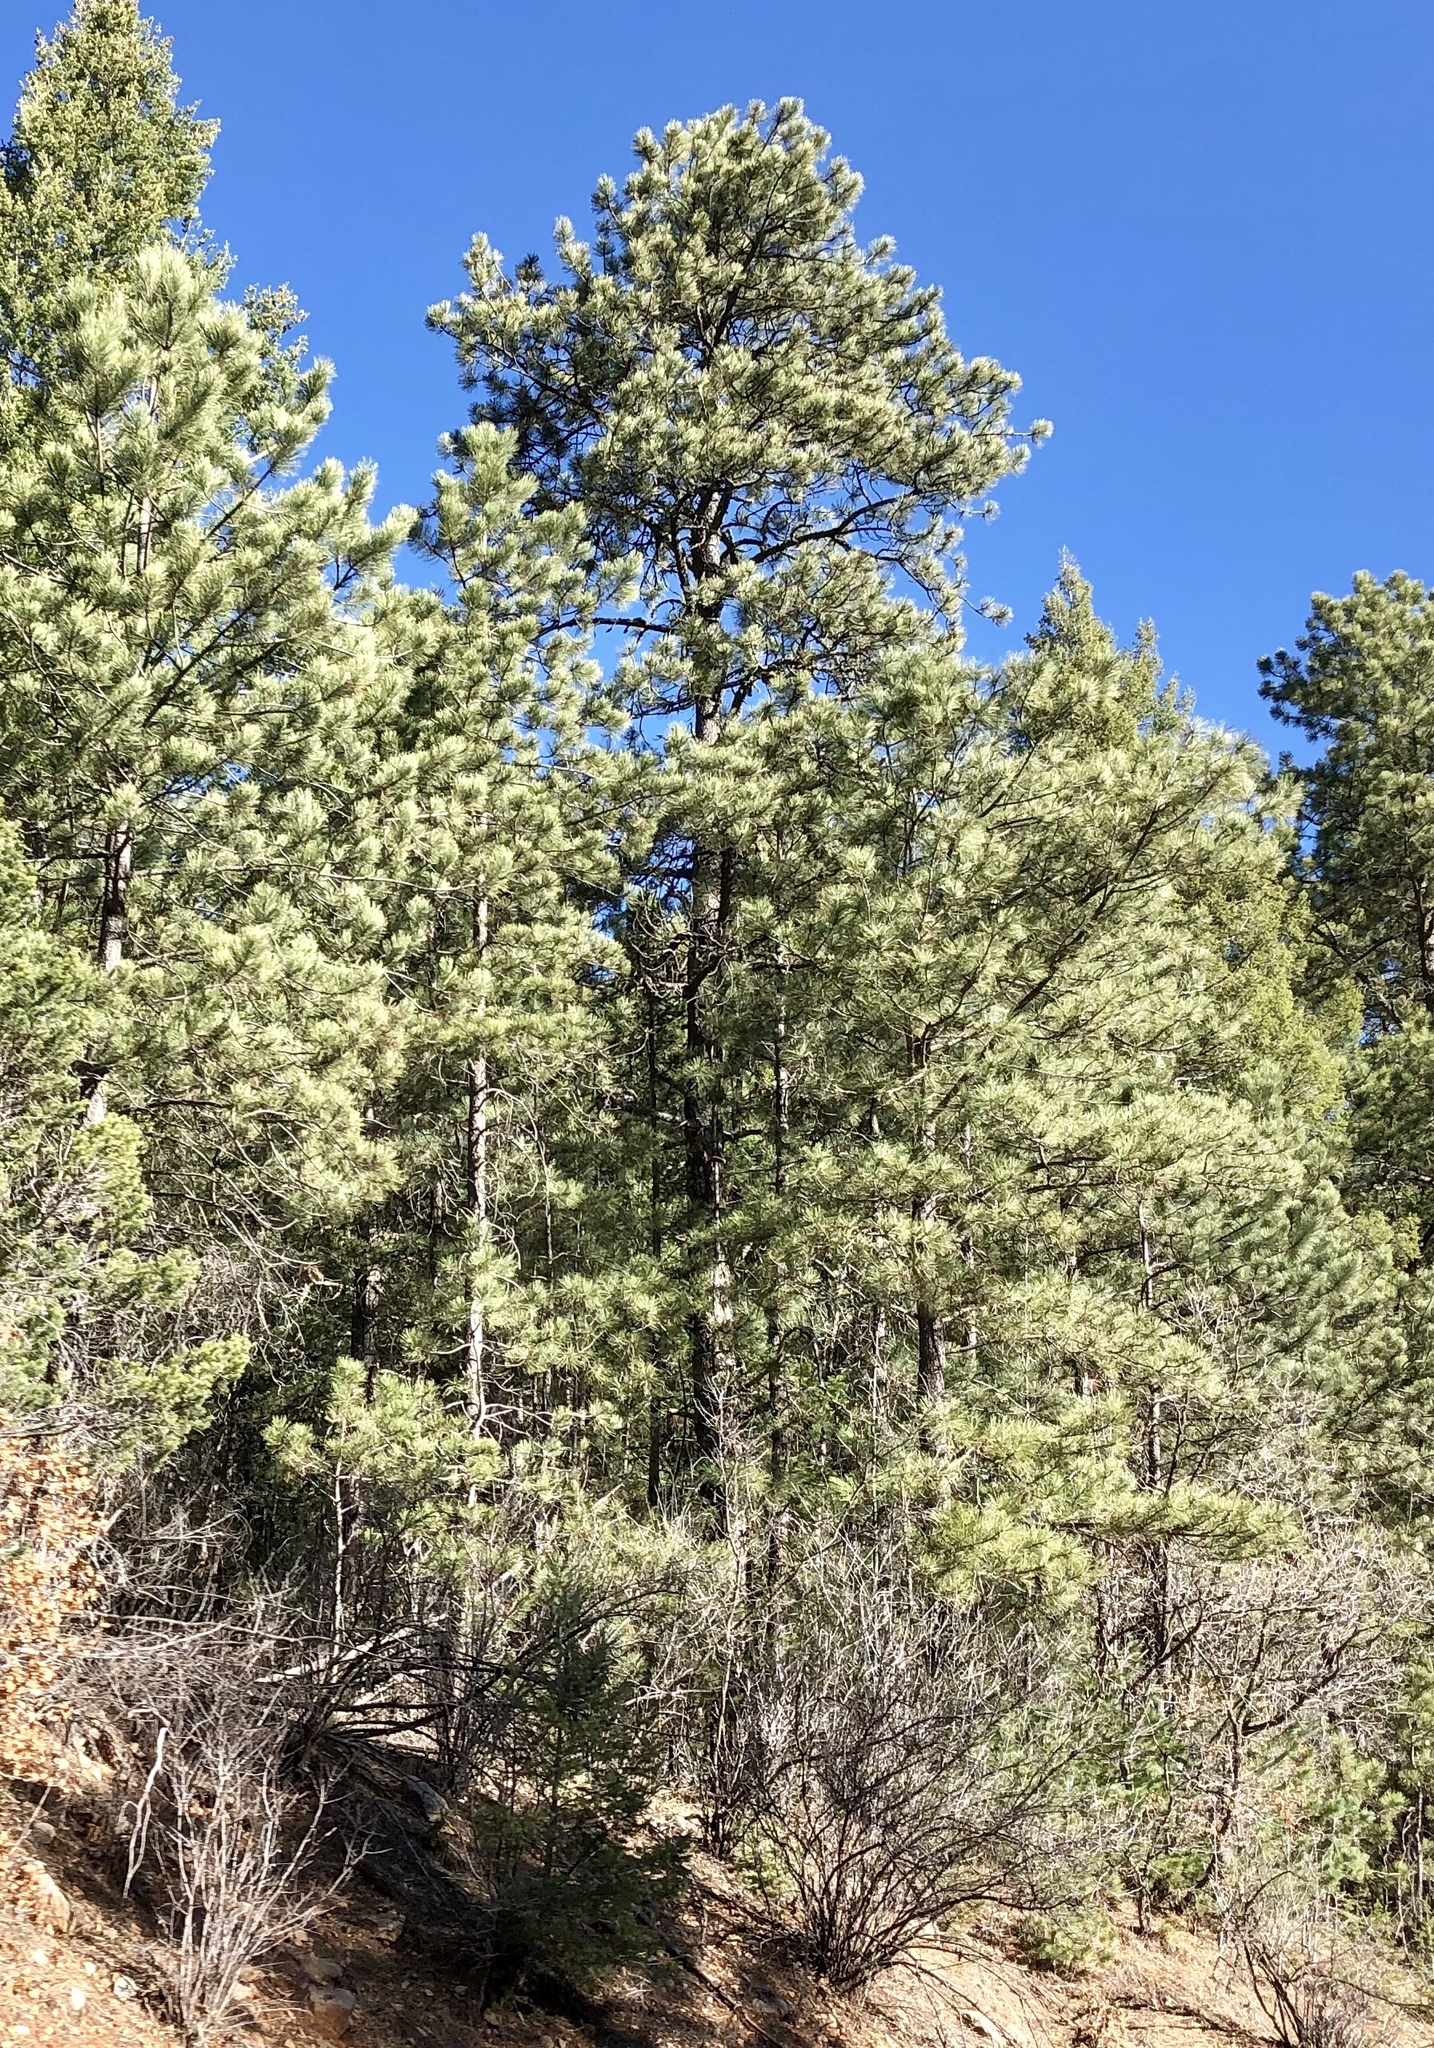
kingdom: Plantae
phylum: Tracheophyta
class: Pinopsida
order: Pinales
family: Pinaceae
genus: Pinus
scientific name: Pinus ponderosa
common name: Western yellow-pine
